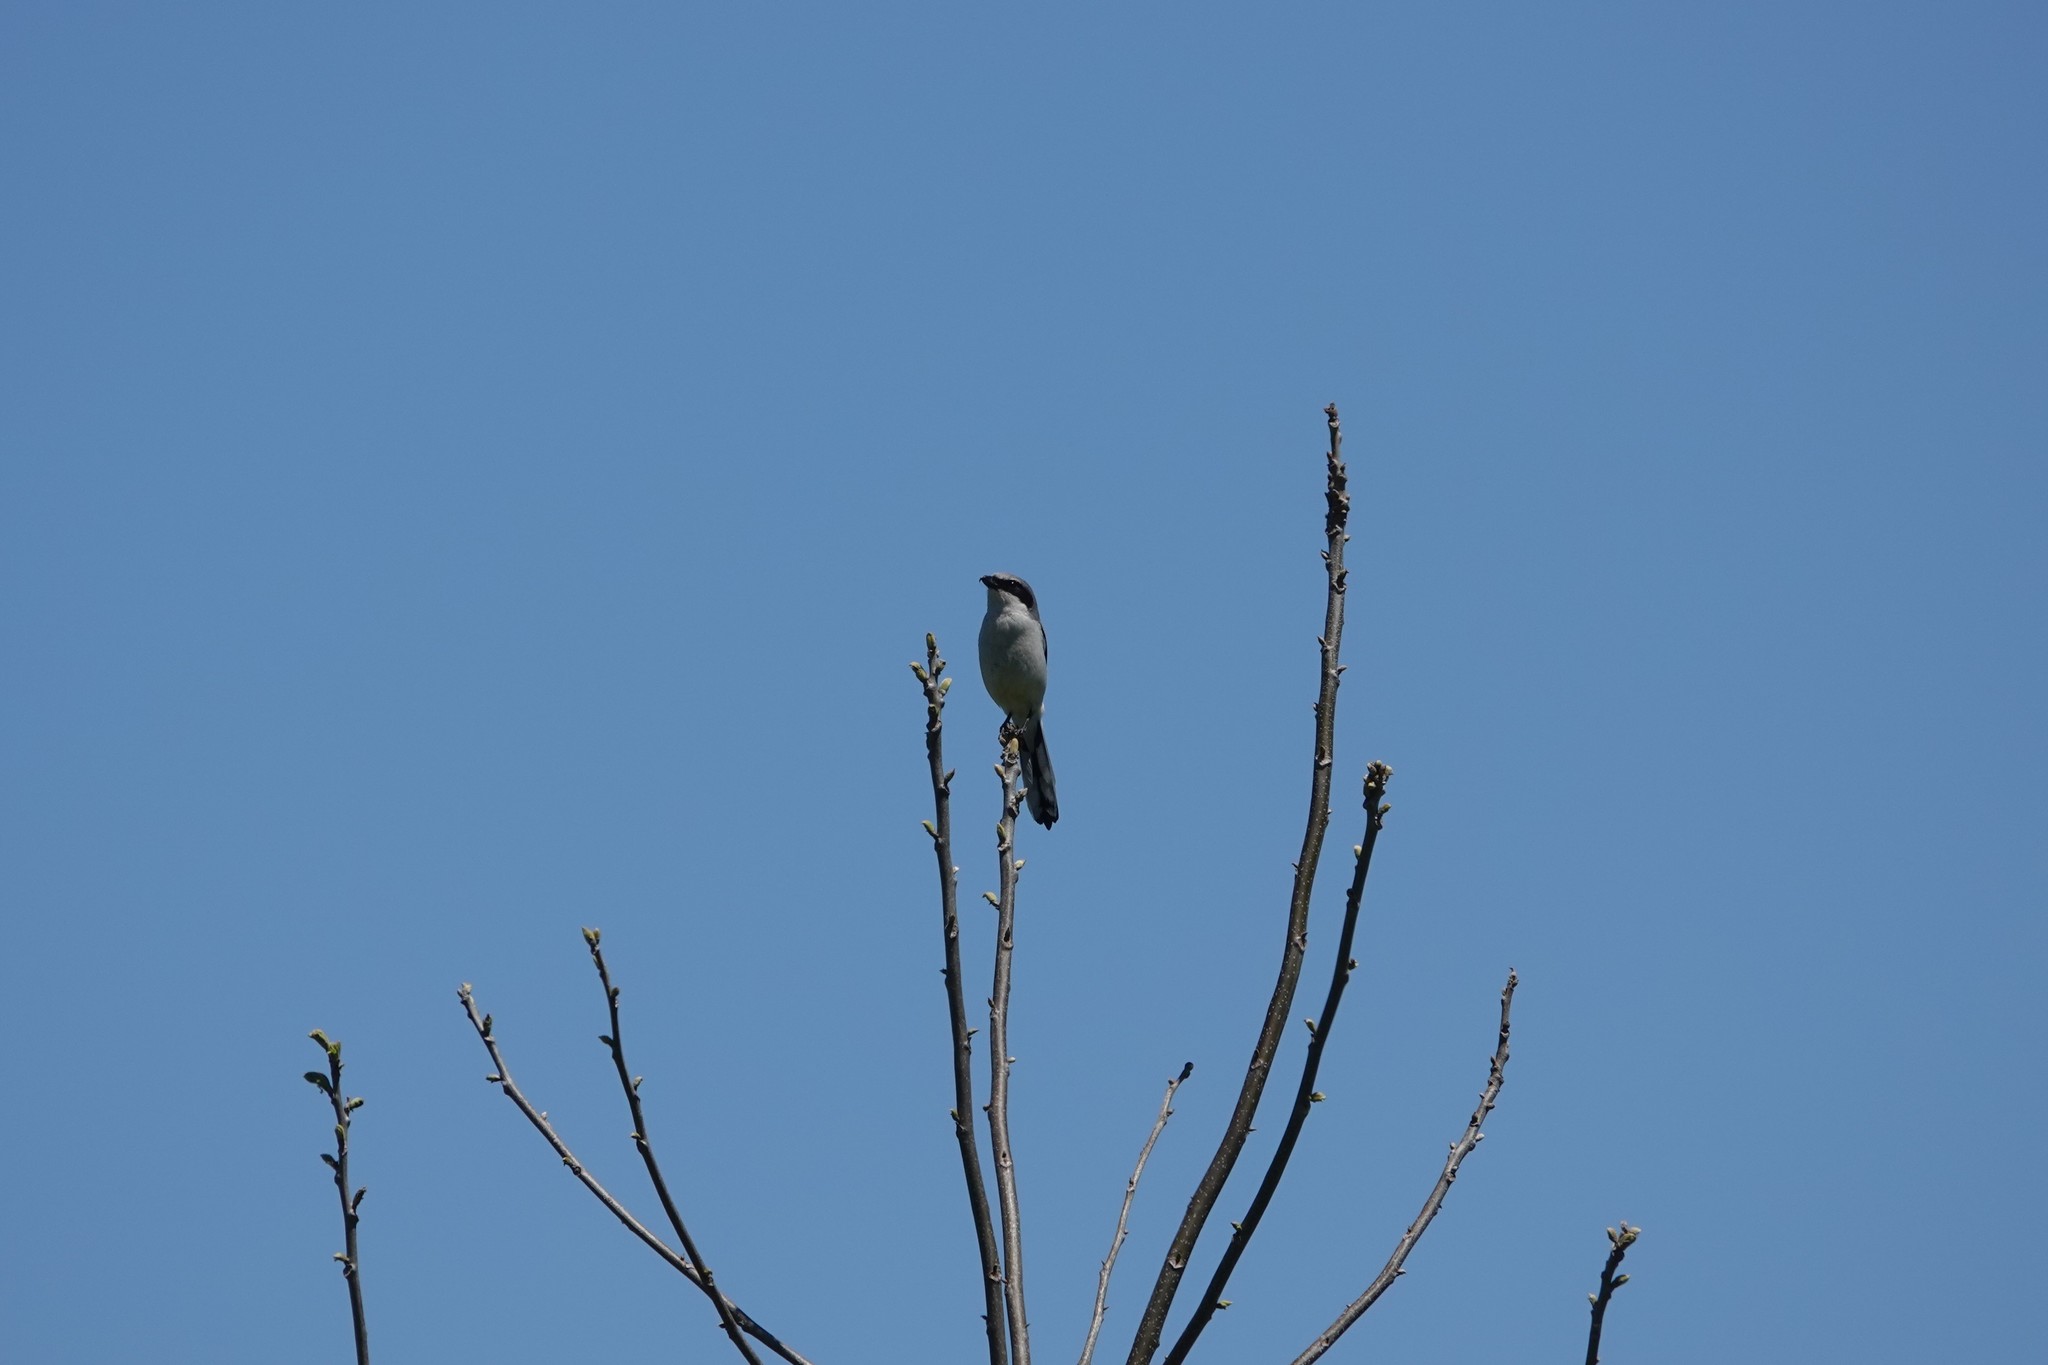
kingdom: Animalia
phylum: Chordata
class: Aves
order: Passeriformes
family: Laniidae
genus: Lanius
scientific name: Lanius ludovicianus
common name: Loggerhead shrike
